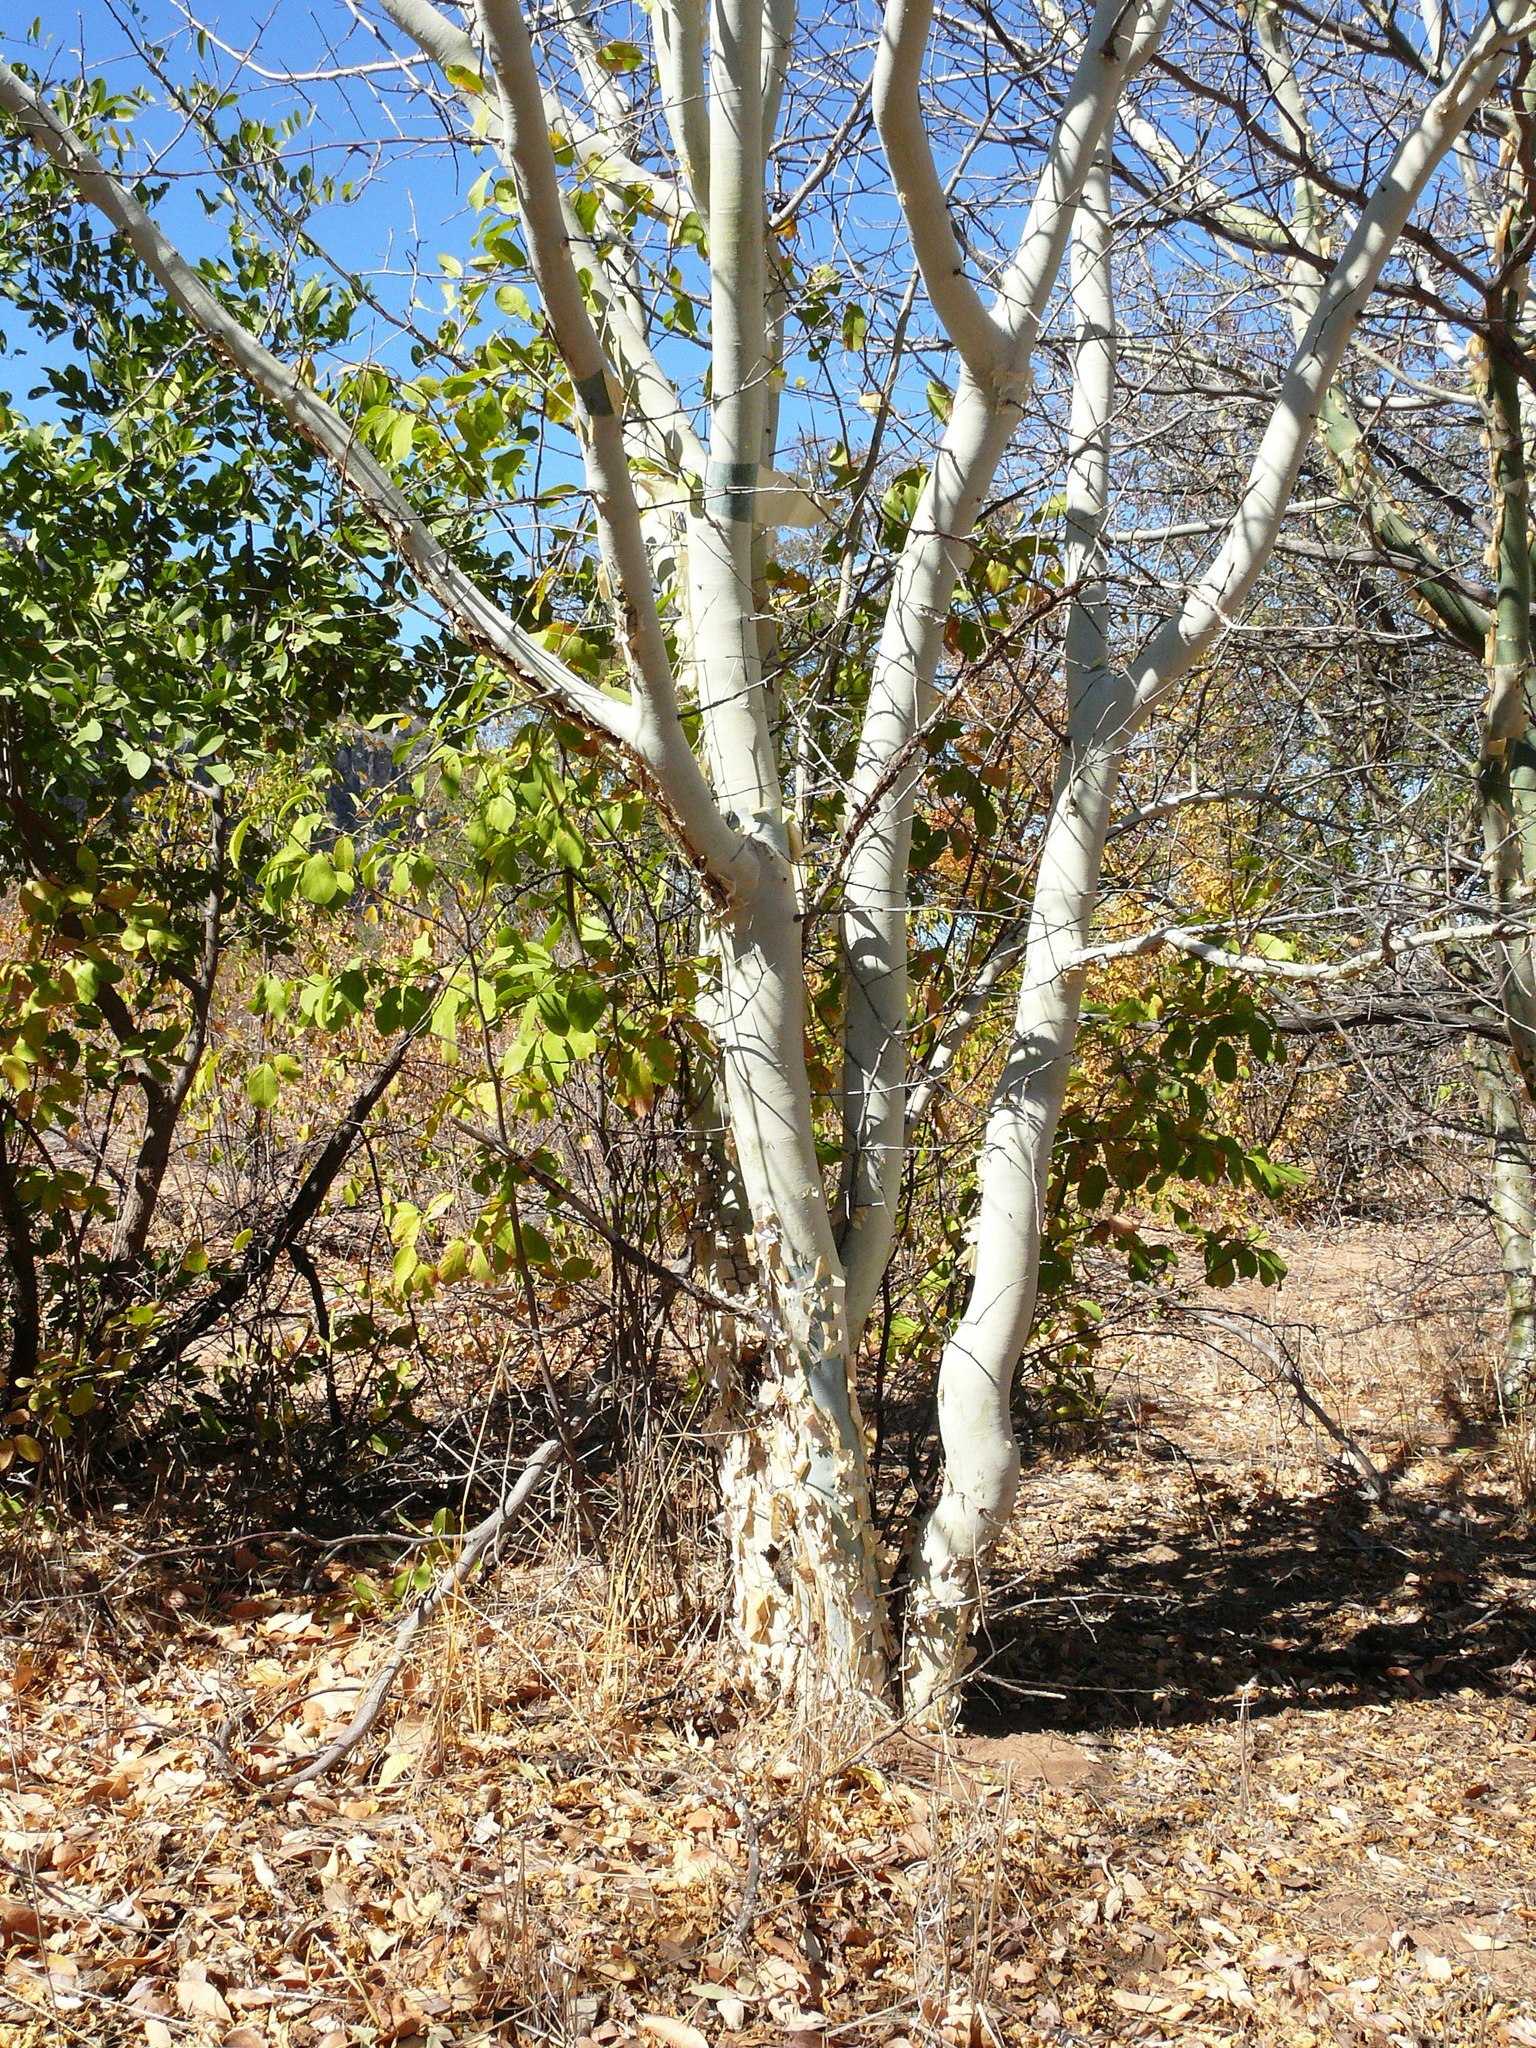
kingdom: Plantae
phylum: Tracheophyta
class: Magnoliopsida
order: Sapindales
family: Burseraceae
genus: Commiphora
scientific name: Commiphora tenuipetiolata
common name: Satin-bark corkwood
